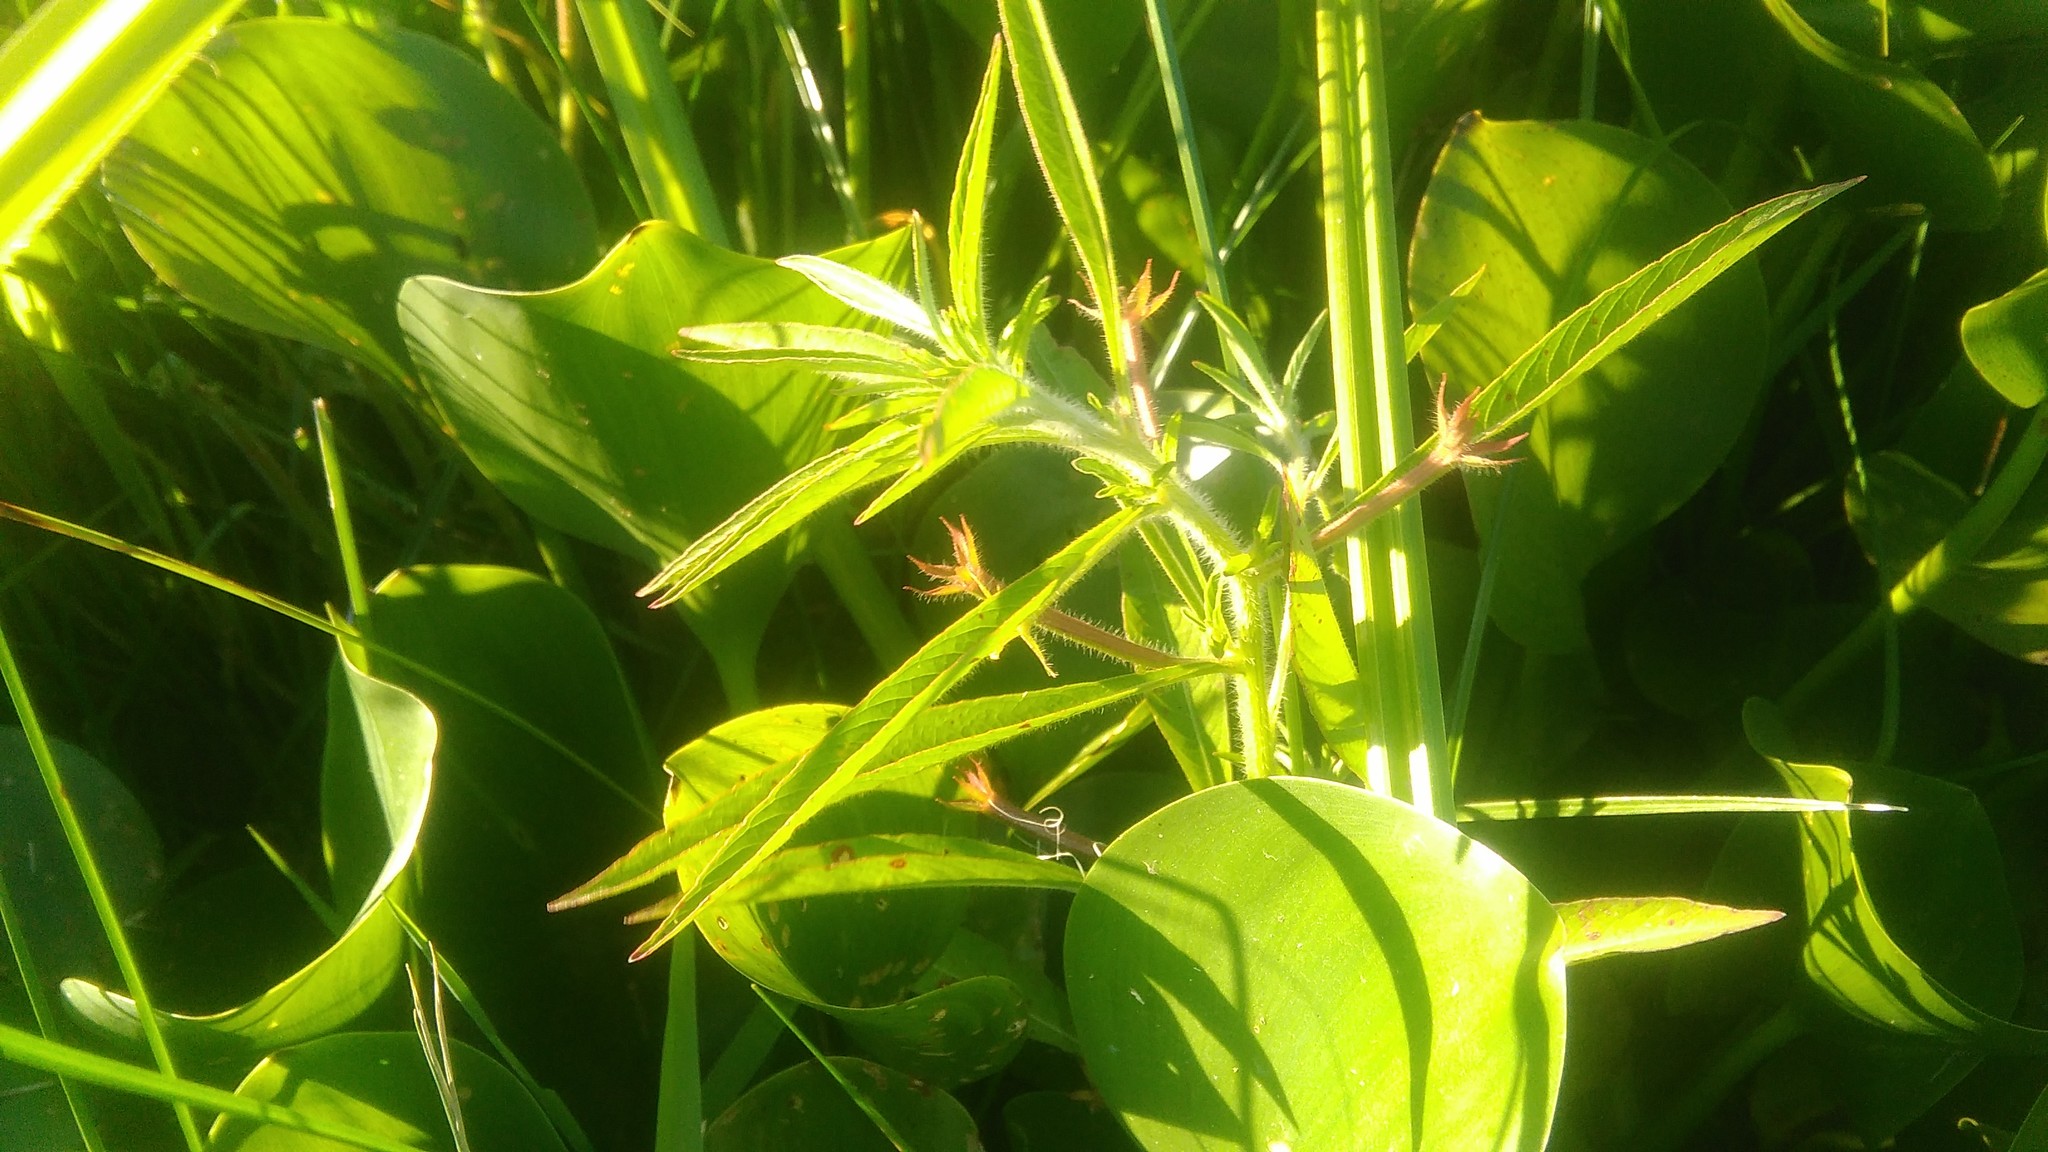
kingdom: Plantae
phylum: Tracheophyta
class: Magnoliopsida
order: Myrtales
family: Onagraceae
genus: Ludwigia
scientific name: Ludwigia peploides
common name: Floating primrose-willow
